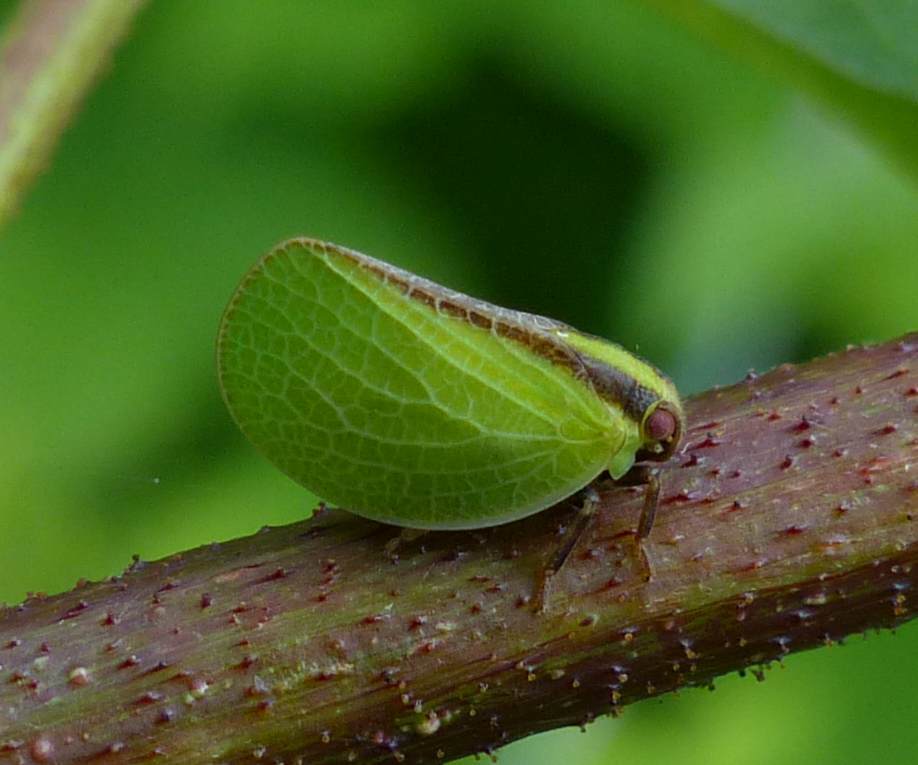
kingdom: Animalia
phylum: Arthropoda
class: Insecta
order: Hemiptera
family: Acanaloniidae
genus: Acanalonia
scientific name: Acanalonia bivittata
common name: Two-striped planthopper
